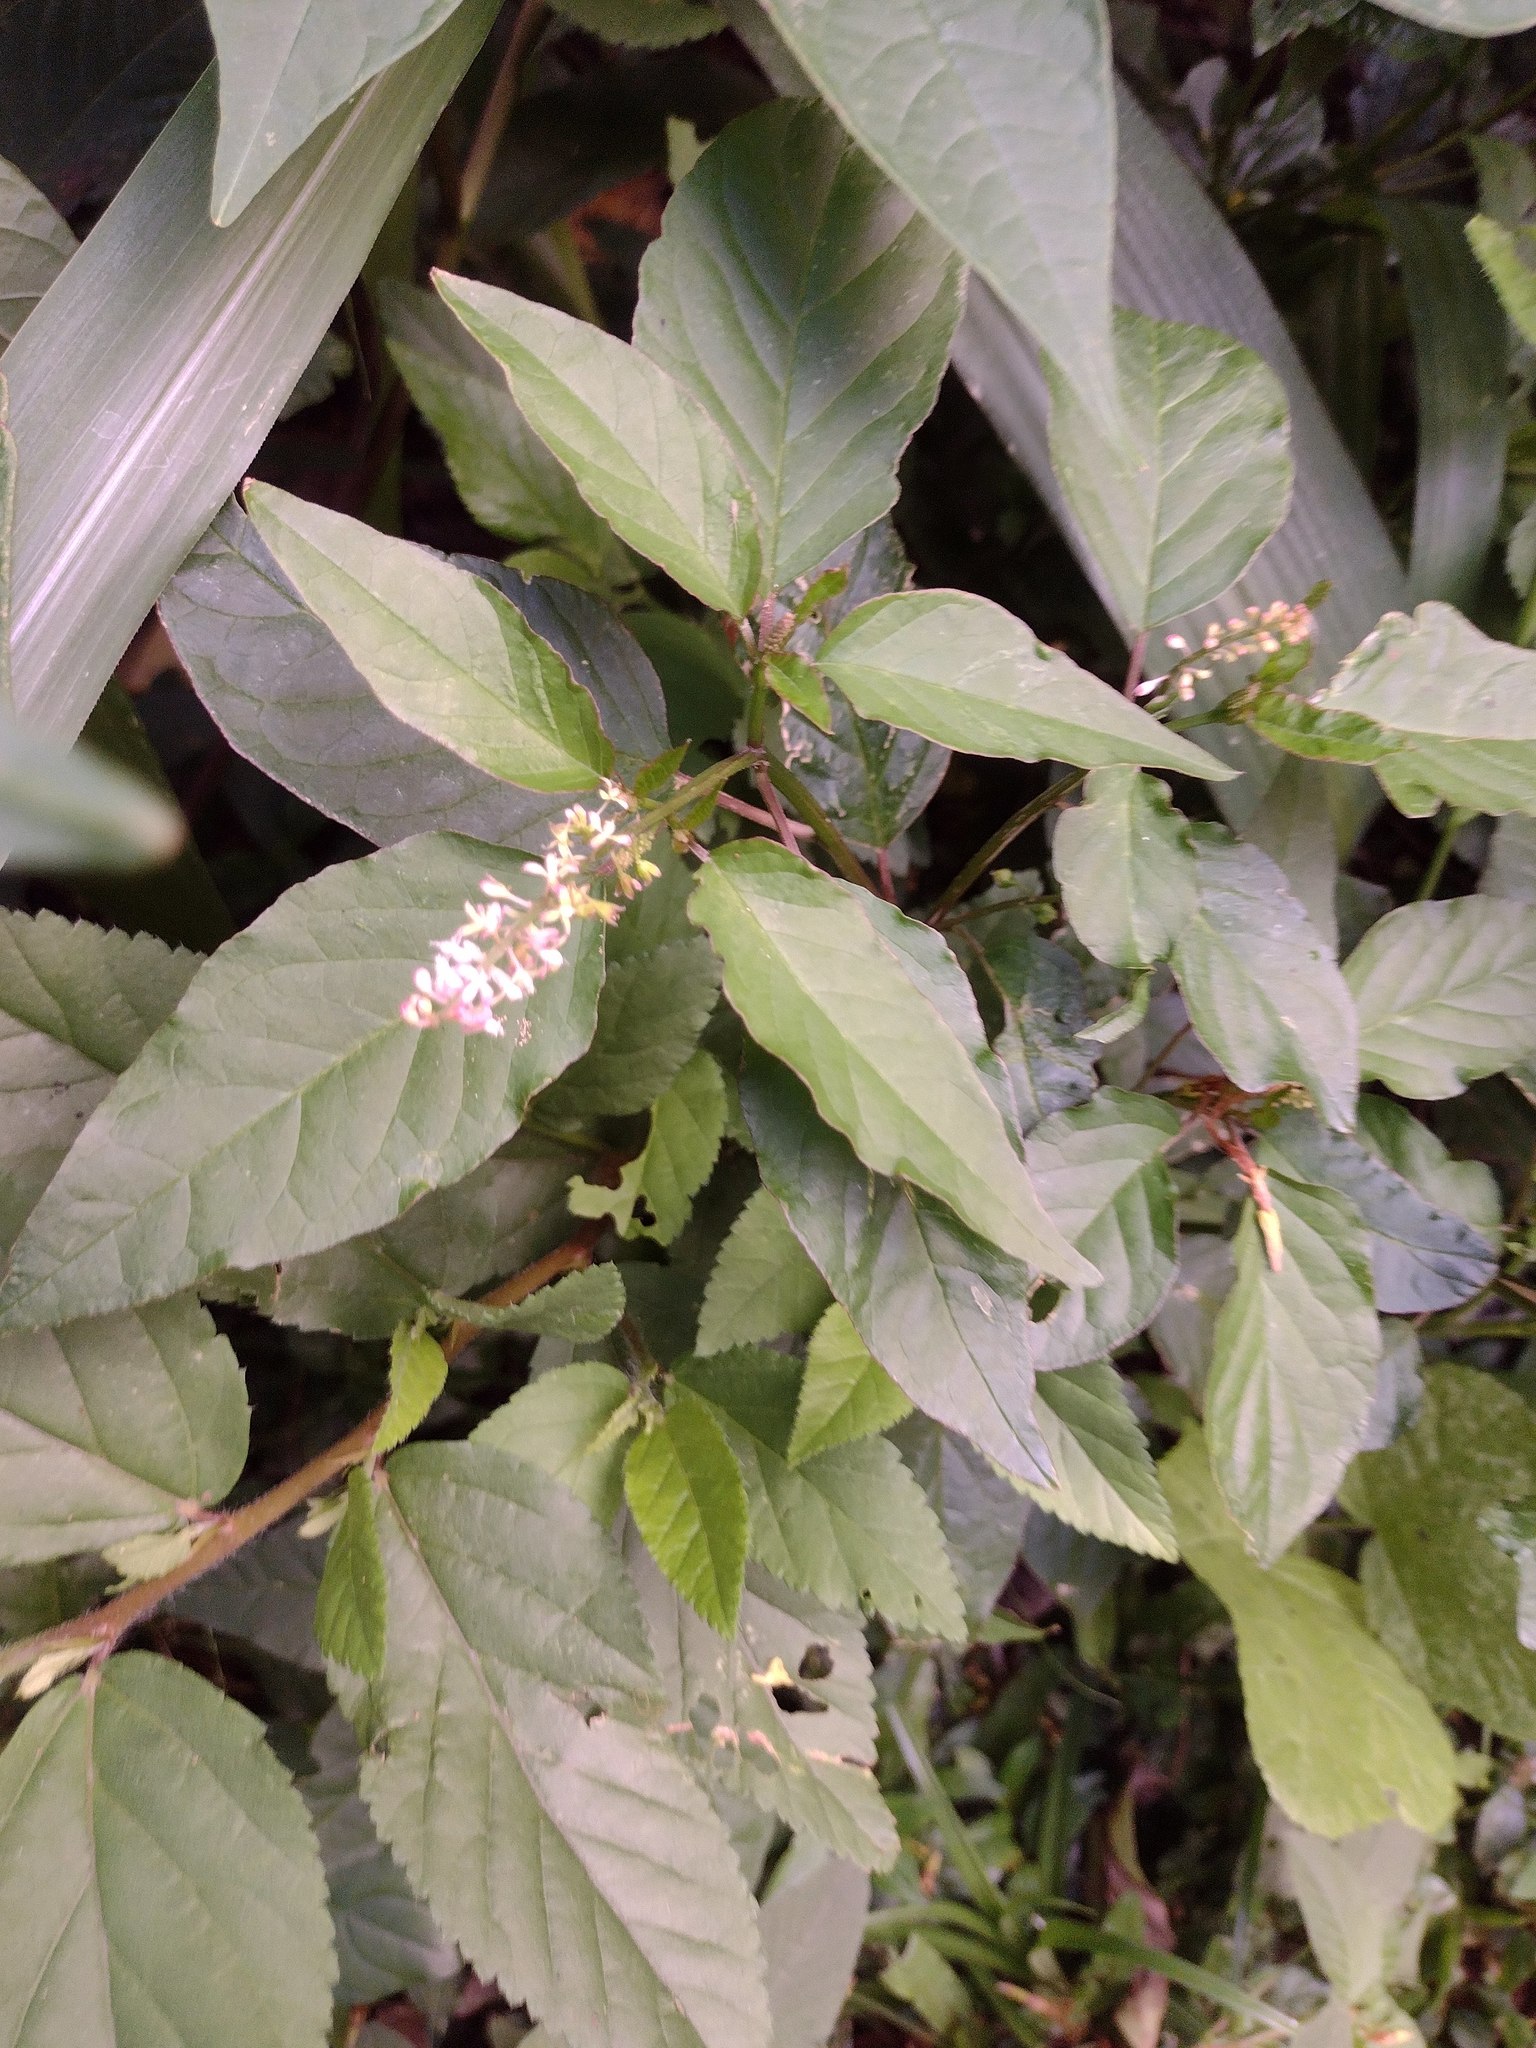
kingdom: Plantae
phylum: Tracheophyta
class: Magnoliopsida
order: Caryophyllales
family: Phytolaccaceae
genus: Rivina
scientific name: Rivina humilis
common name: Rougeplant
